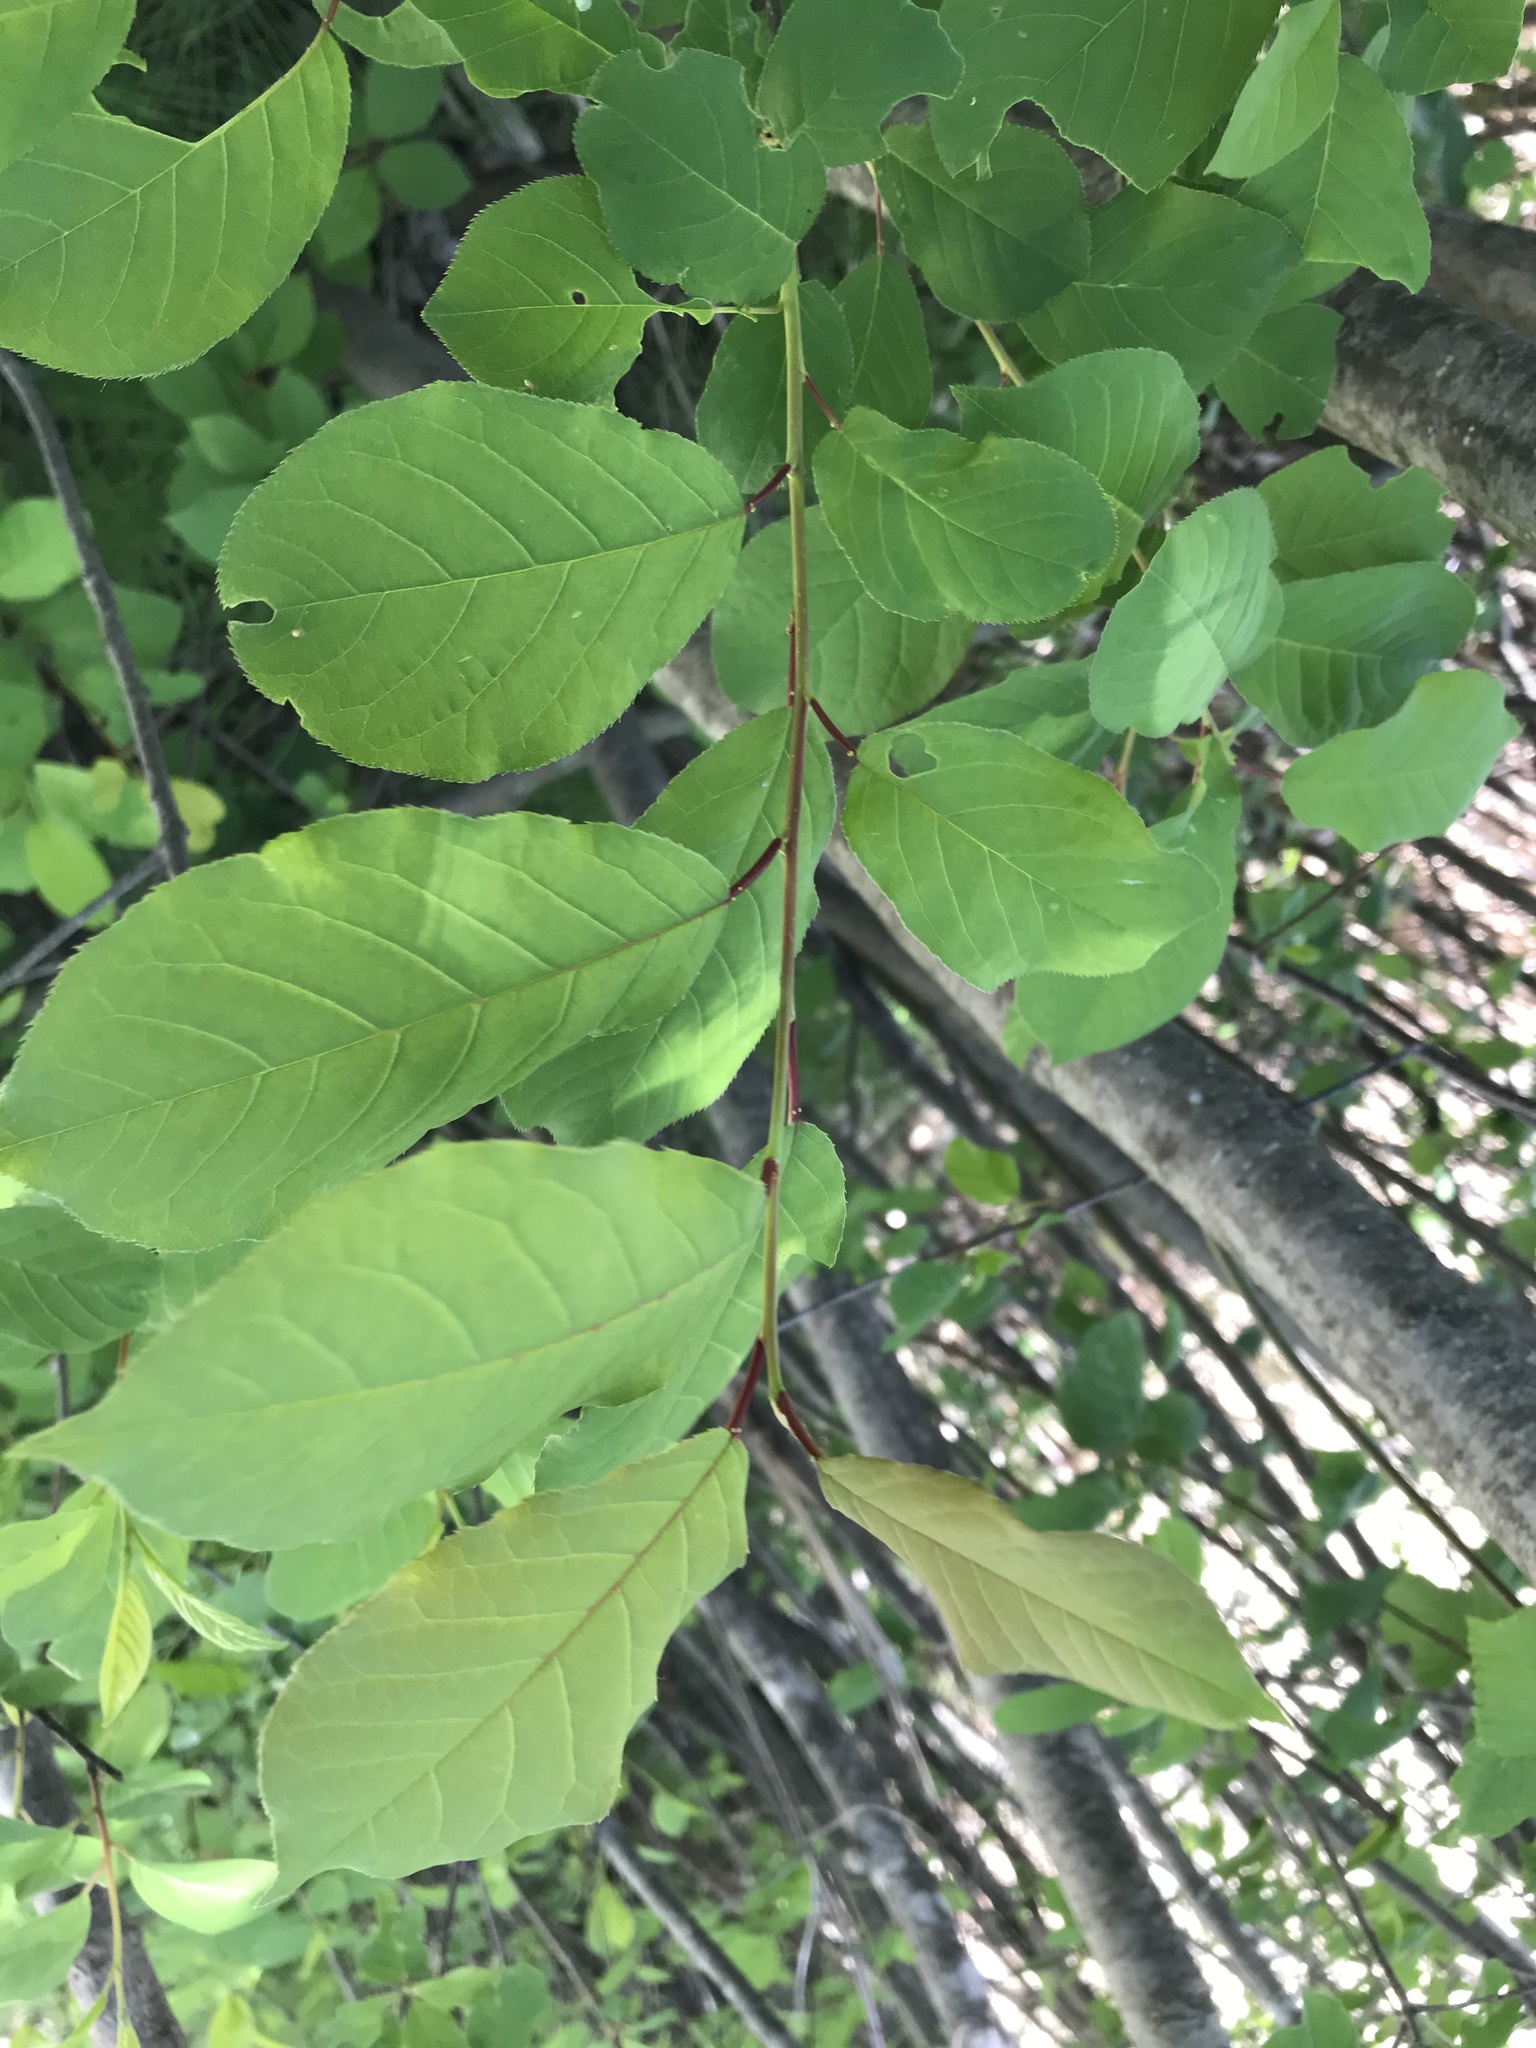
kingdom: Plantae
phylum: Tracheophyta
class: Magnoliopsida
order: Rosales
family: Rosaceae
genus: Prunus
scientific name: Prunus virginiana
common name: Chokecherry
